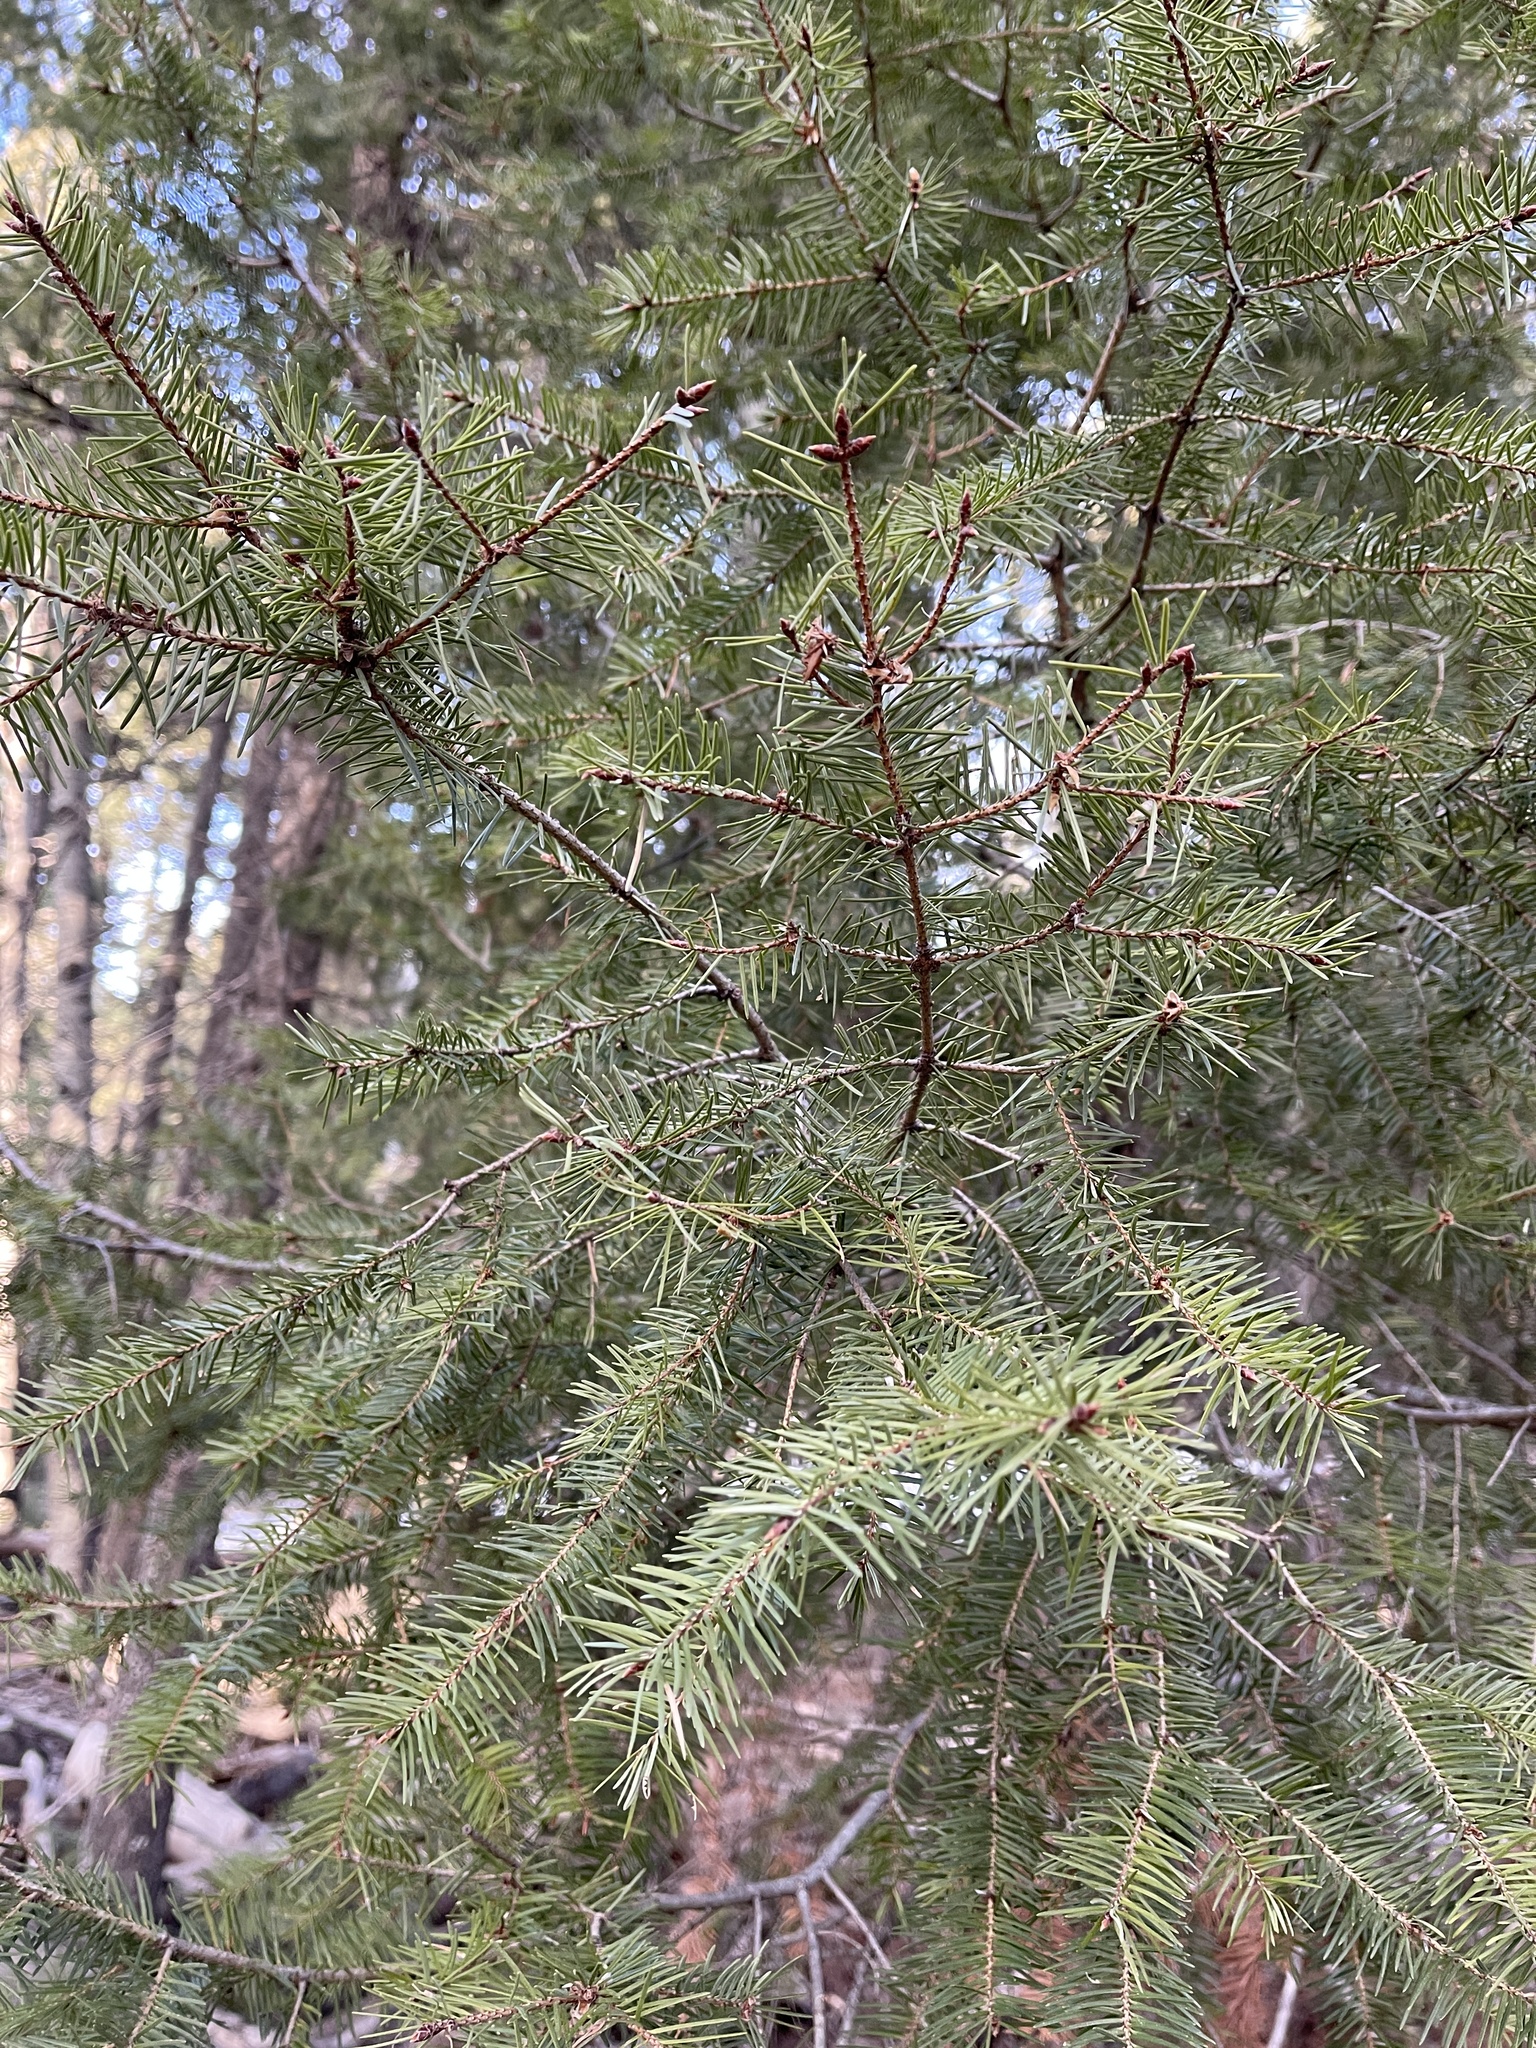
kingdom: Plantae
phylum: Tracheophyta
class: Pinopsida
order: Pinales
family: Pinaceae
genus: Pseudotsuga
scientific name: Pseudotsuga menziesii
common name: Douglas fir
